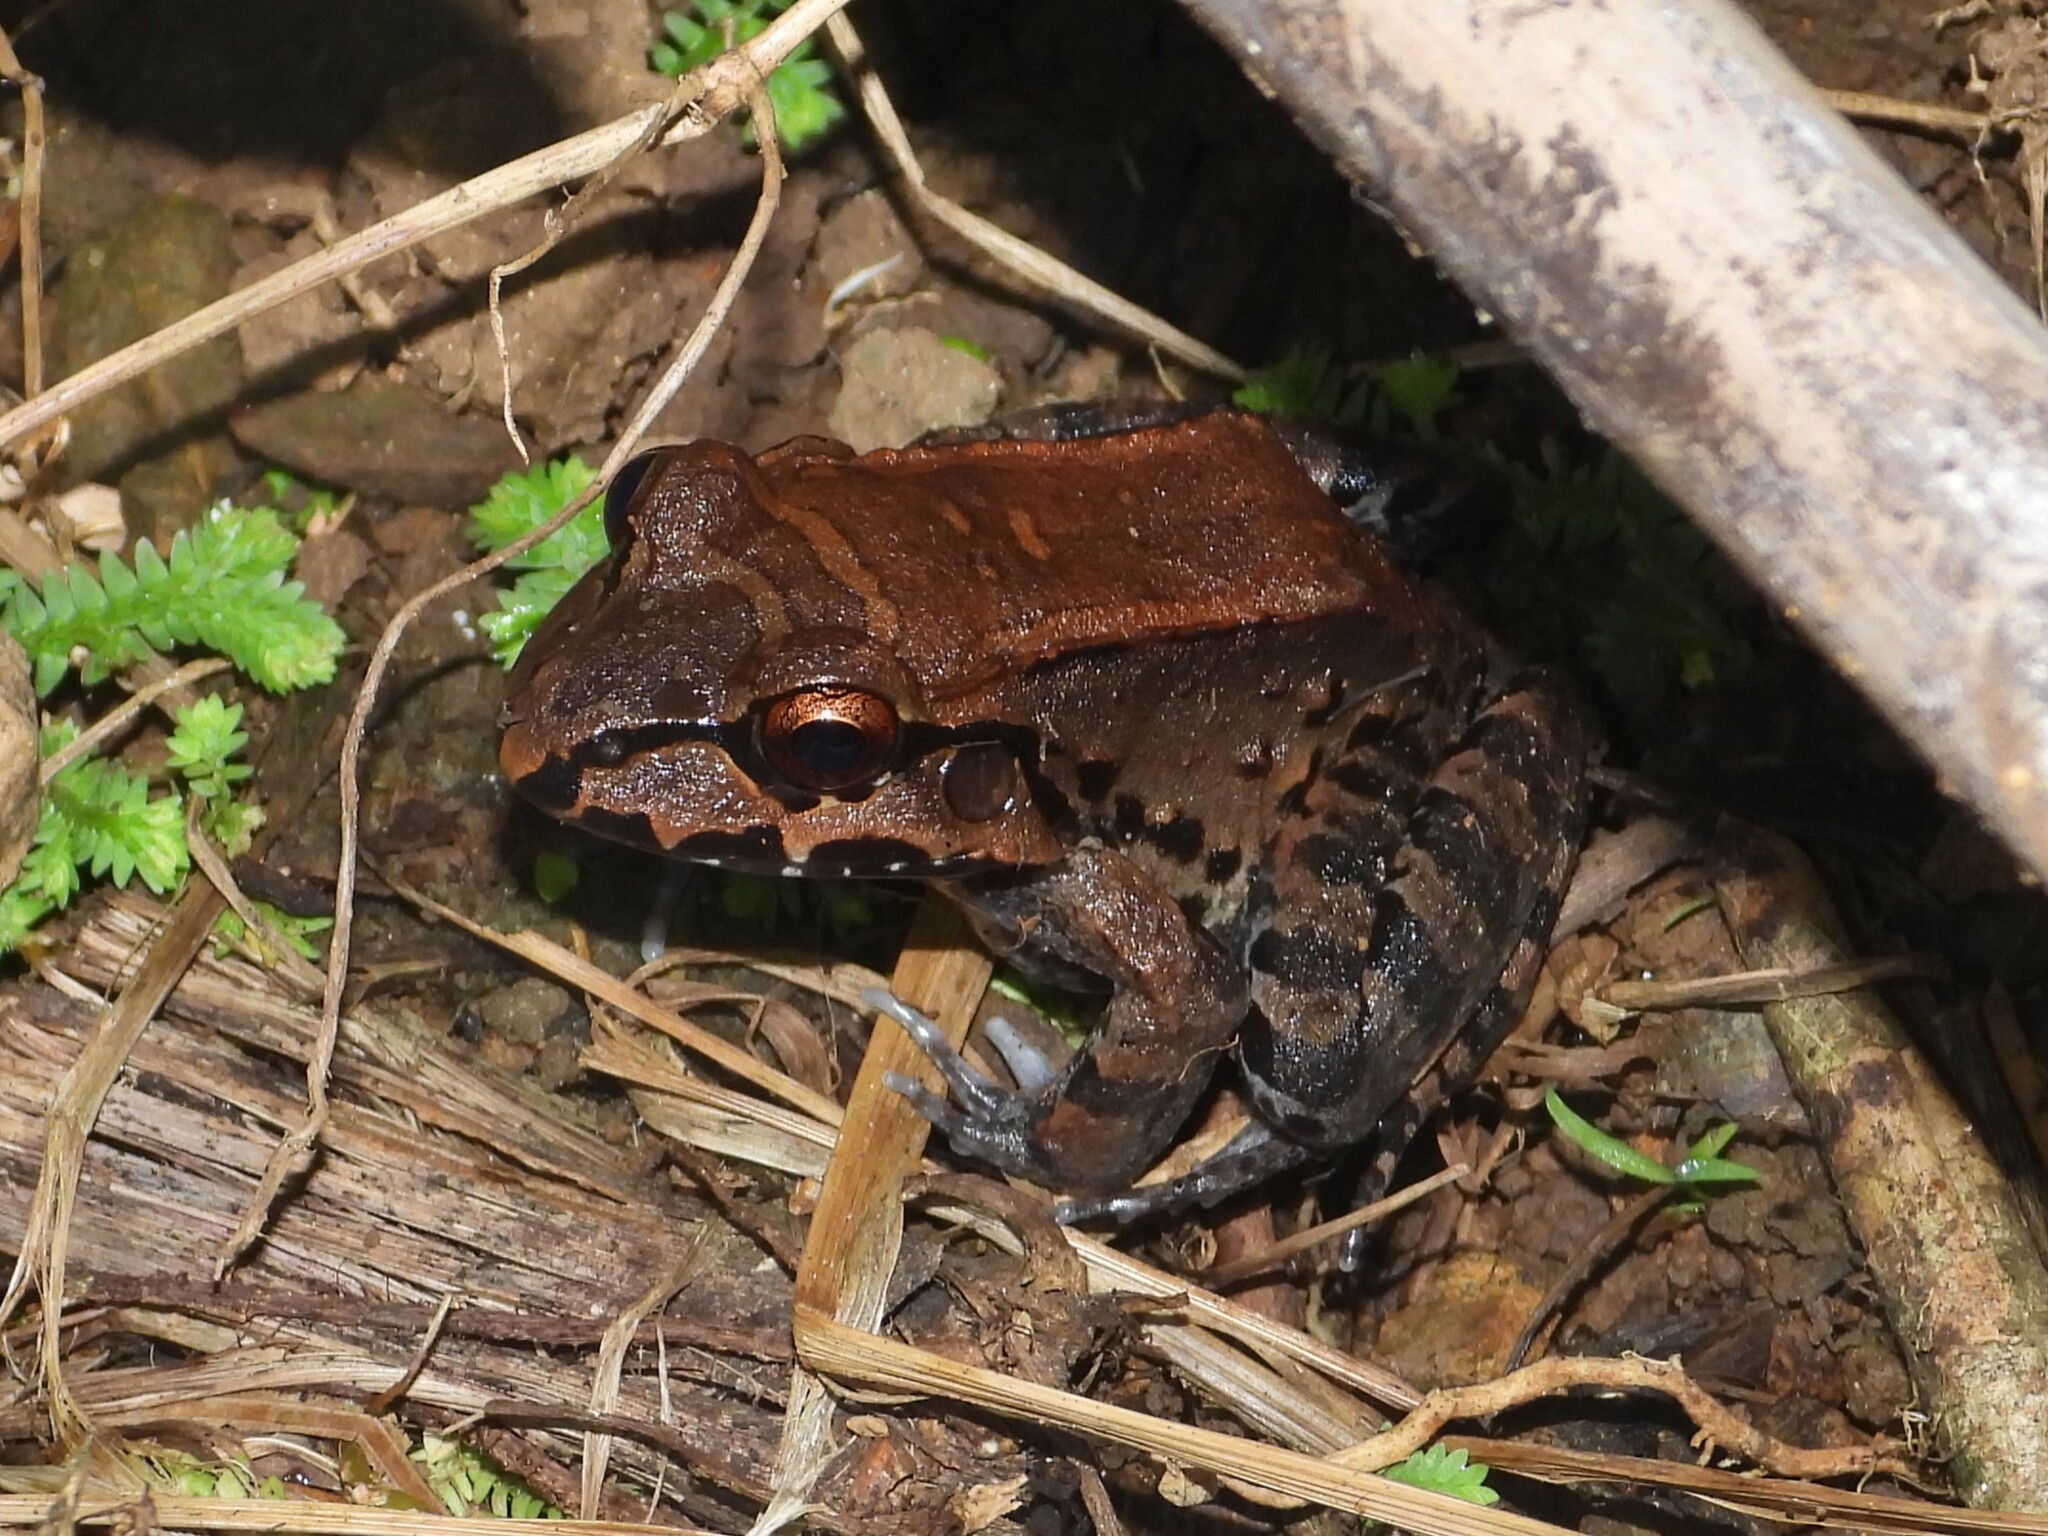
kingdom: Animalia
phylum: Chordata
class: Amphibia
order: Anura
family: Leptodactylidae
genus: Leptodactylus
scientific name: Leptodactylus savagei
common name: Savage's thin-toed frog
